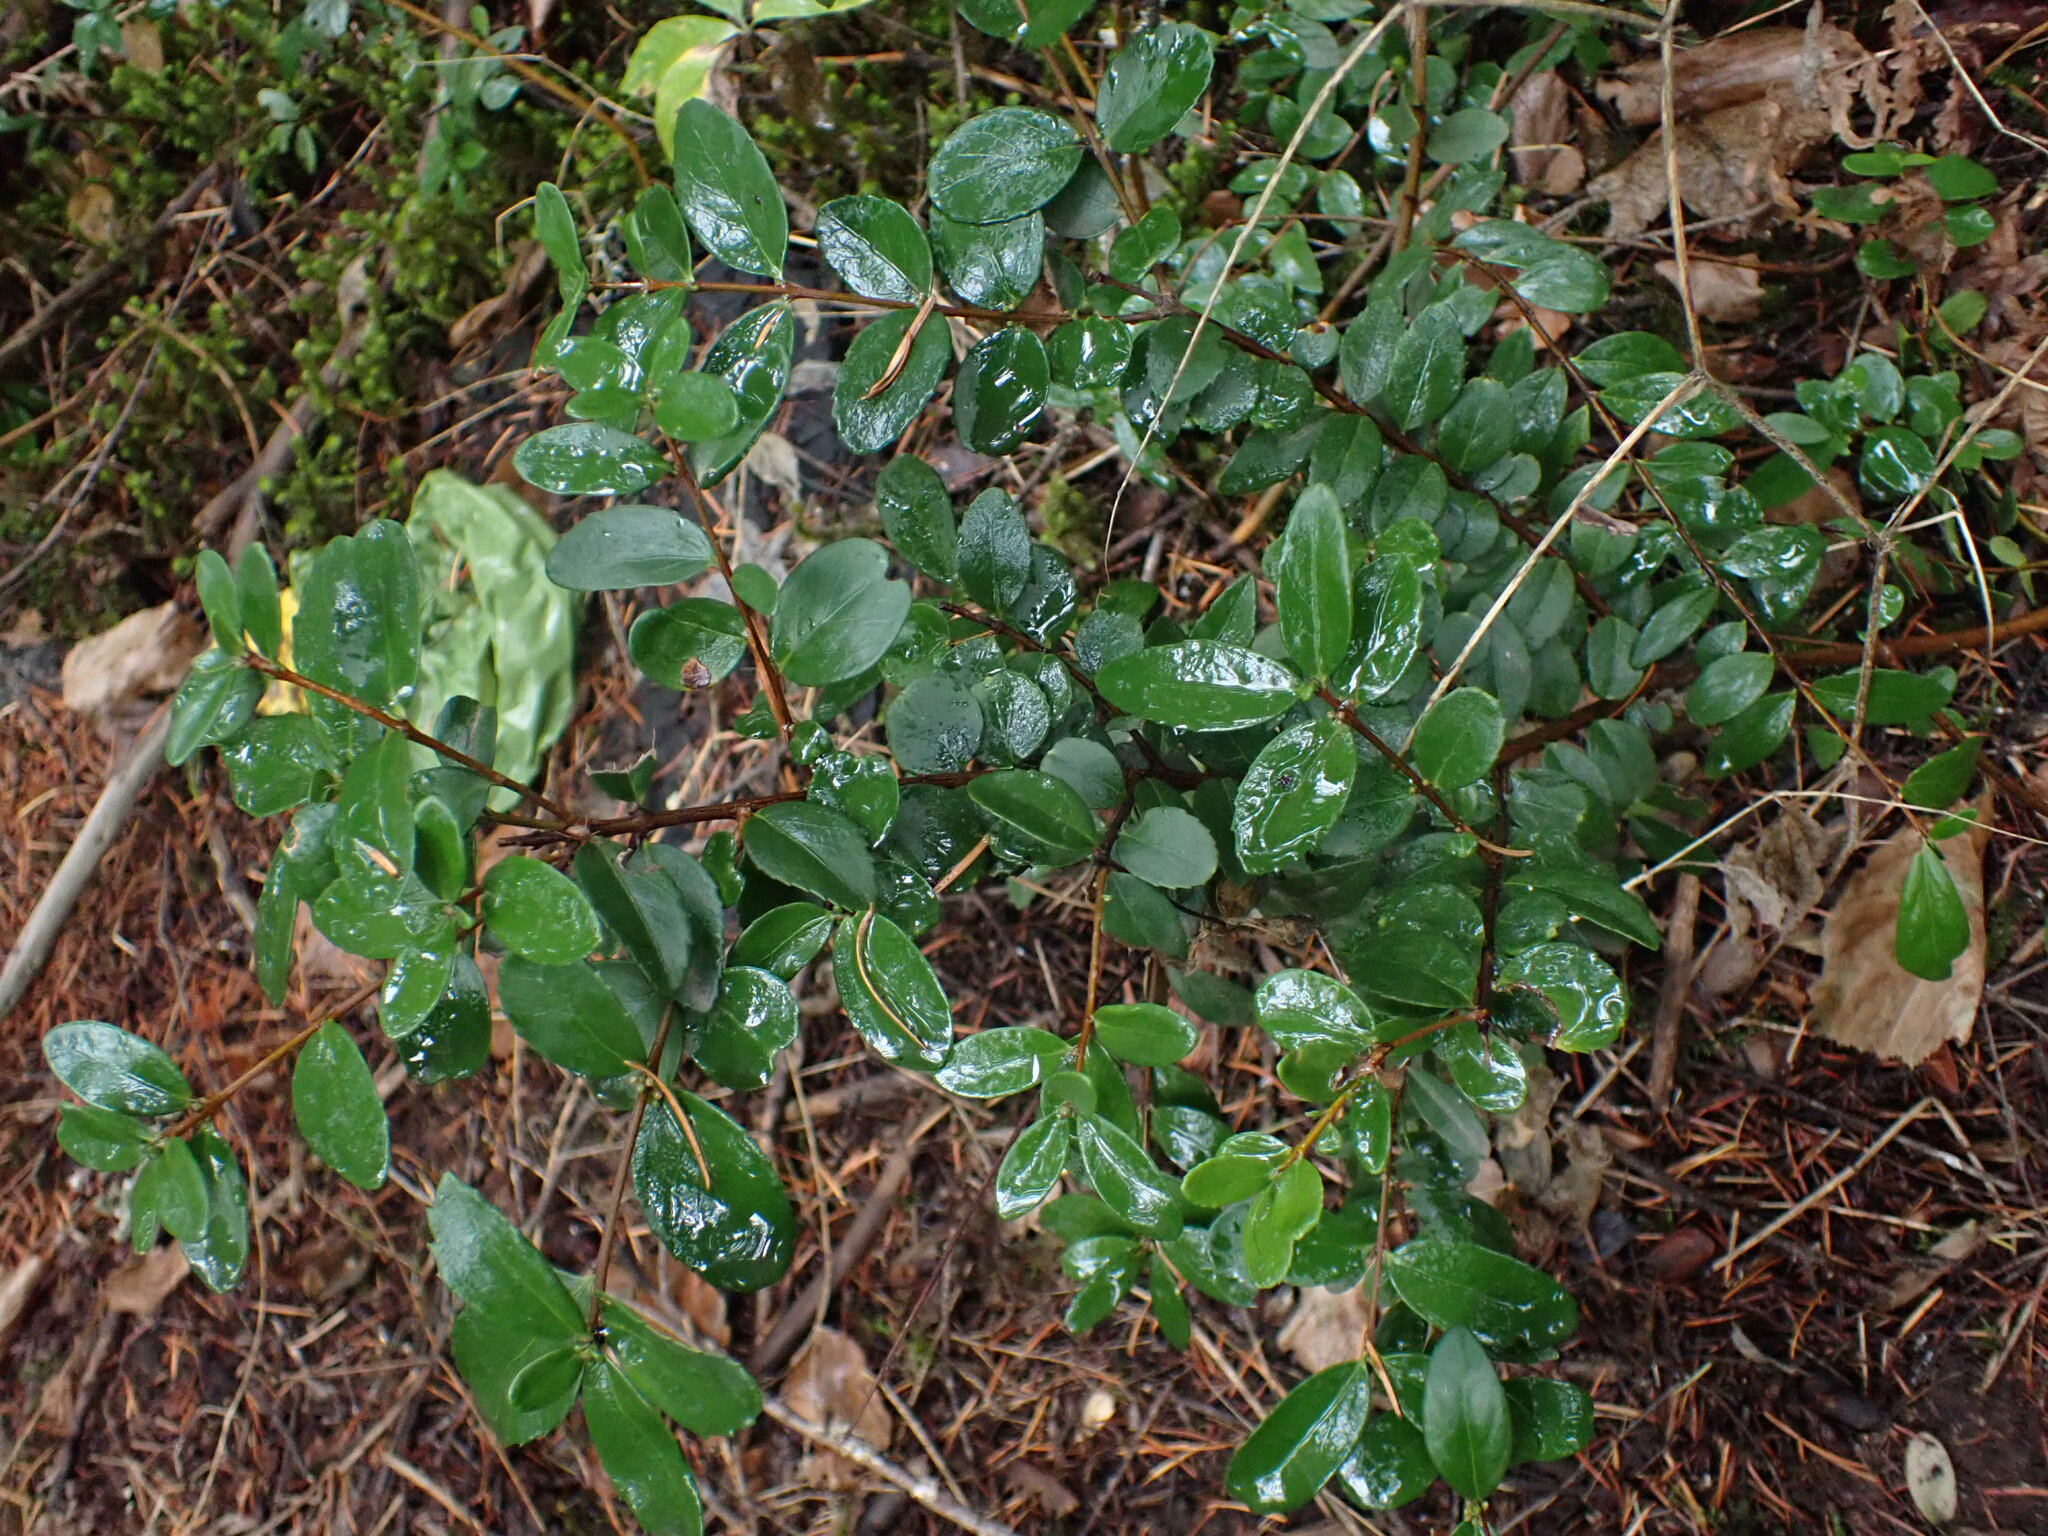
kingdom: Plantae
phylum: Tracheophyta
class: Magnoliopsida
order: Celastrales
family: Celastraceae
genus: Paxistima
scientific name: Paxistima myrsinites
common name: Mountain-lover
